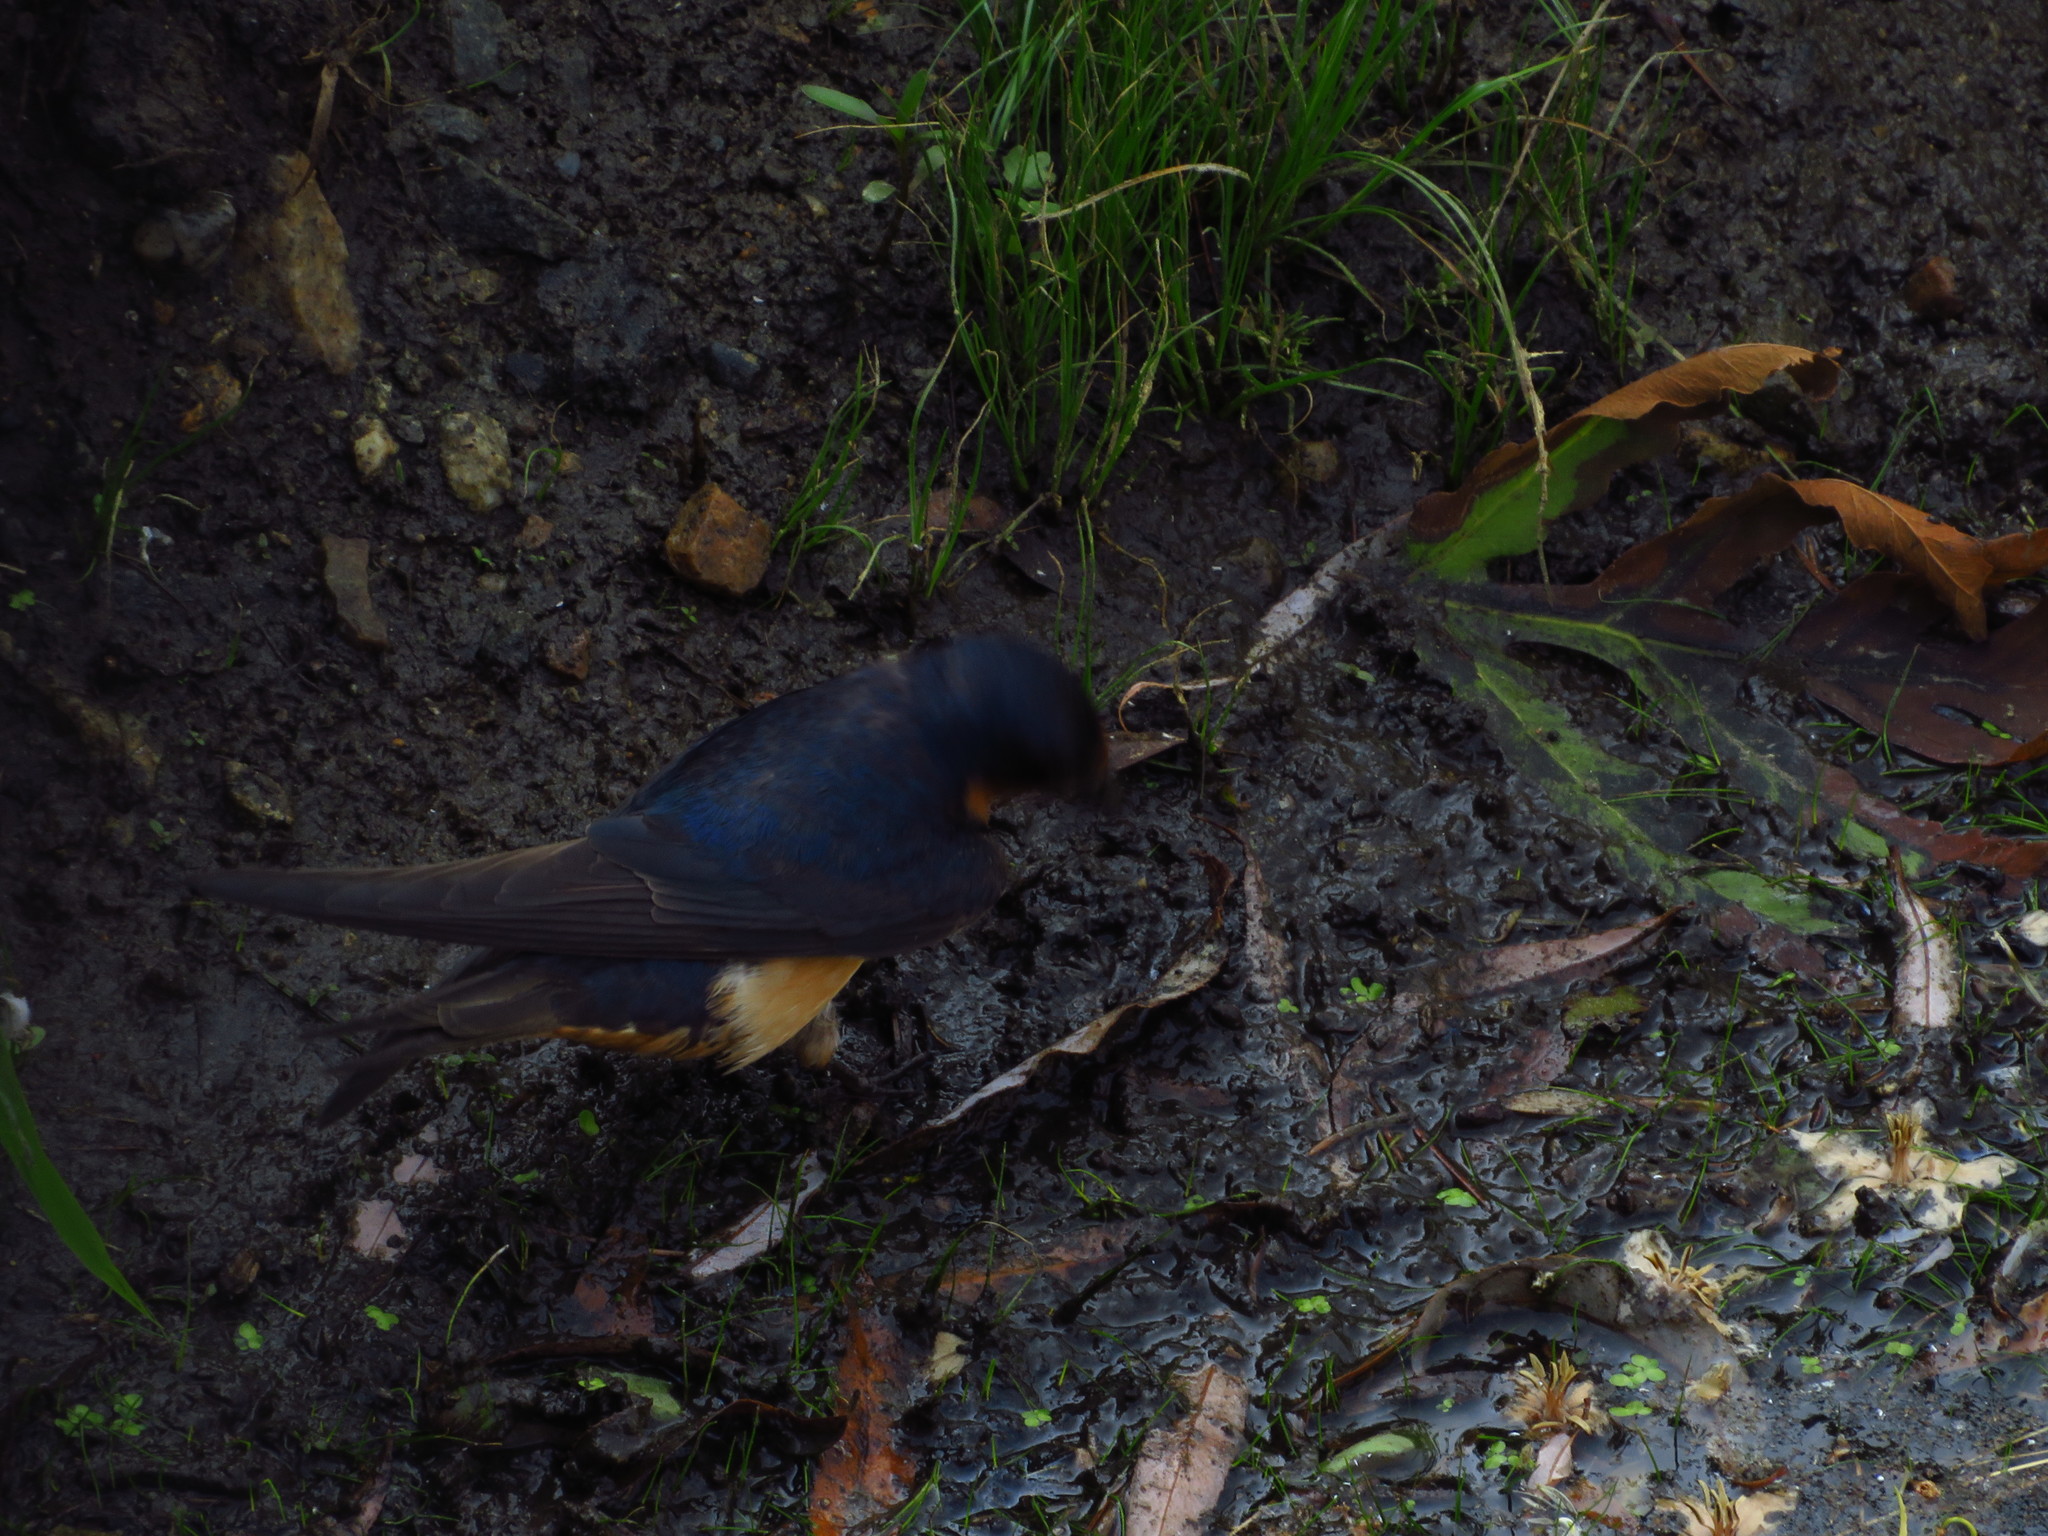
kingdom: Animalia
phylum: Chordata
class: Aves
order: Passeriformes
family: Hirundinidae
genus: Hirundo
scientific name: Hirundo rustica
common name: Barn swallow
